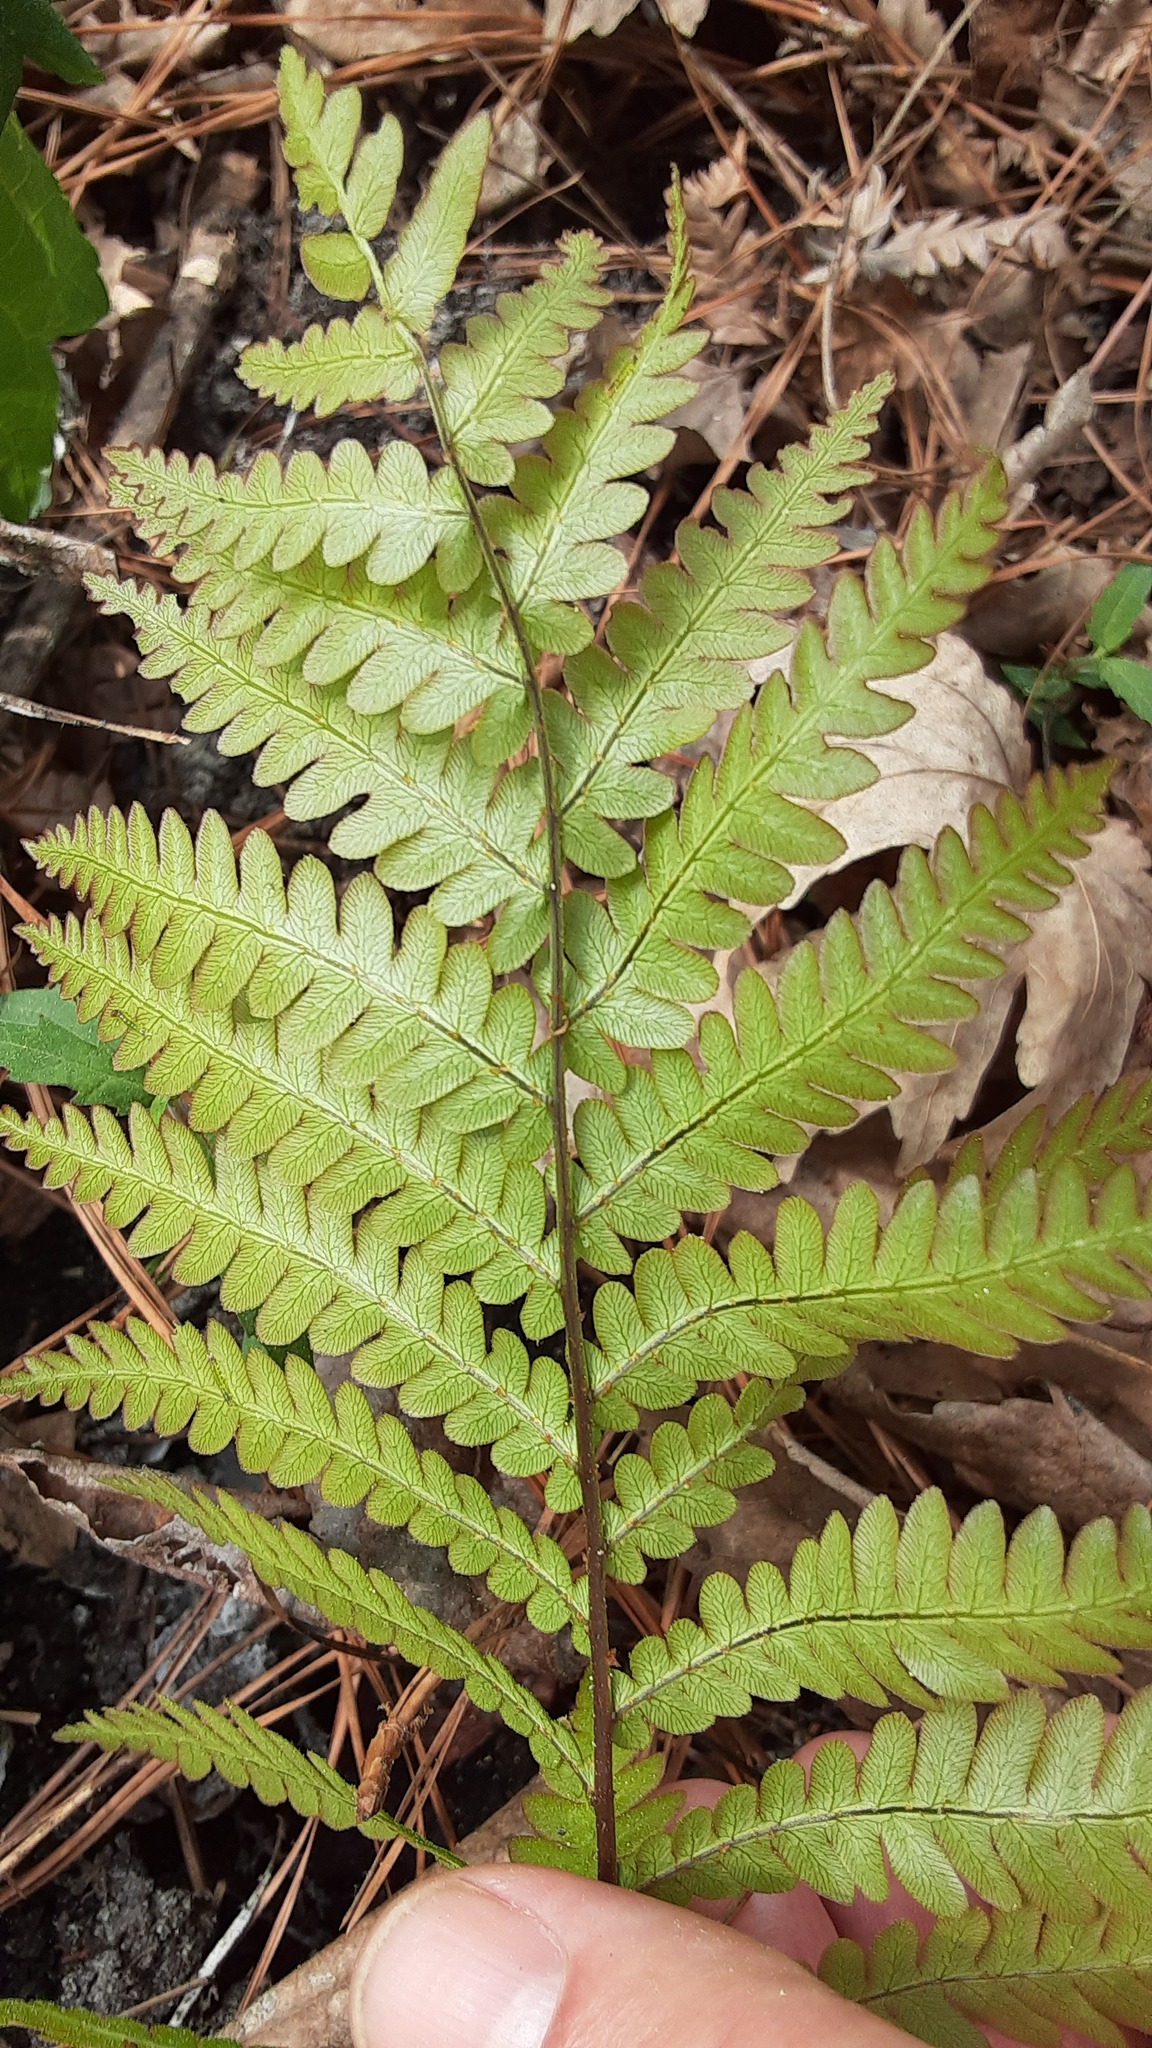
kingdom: Plantae
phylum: Tracheophyta
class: Polypodiopsida
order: Polypodiales
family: Blechnaceae
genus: Anchistea
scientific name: Anchistea virginica
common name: Virginia chain fern
